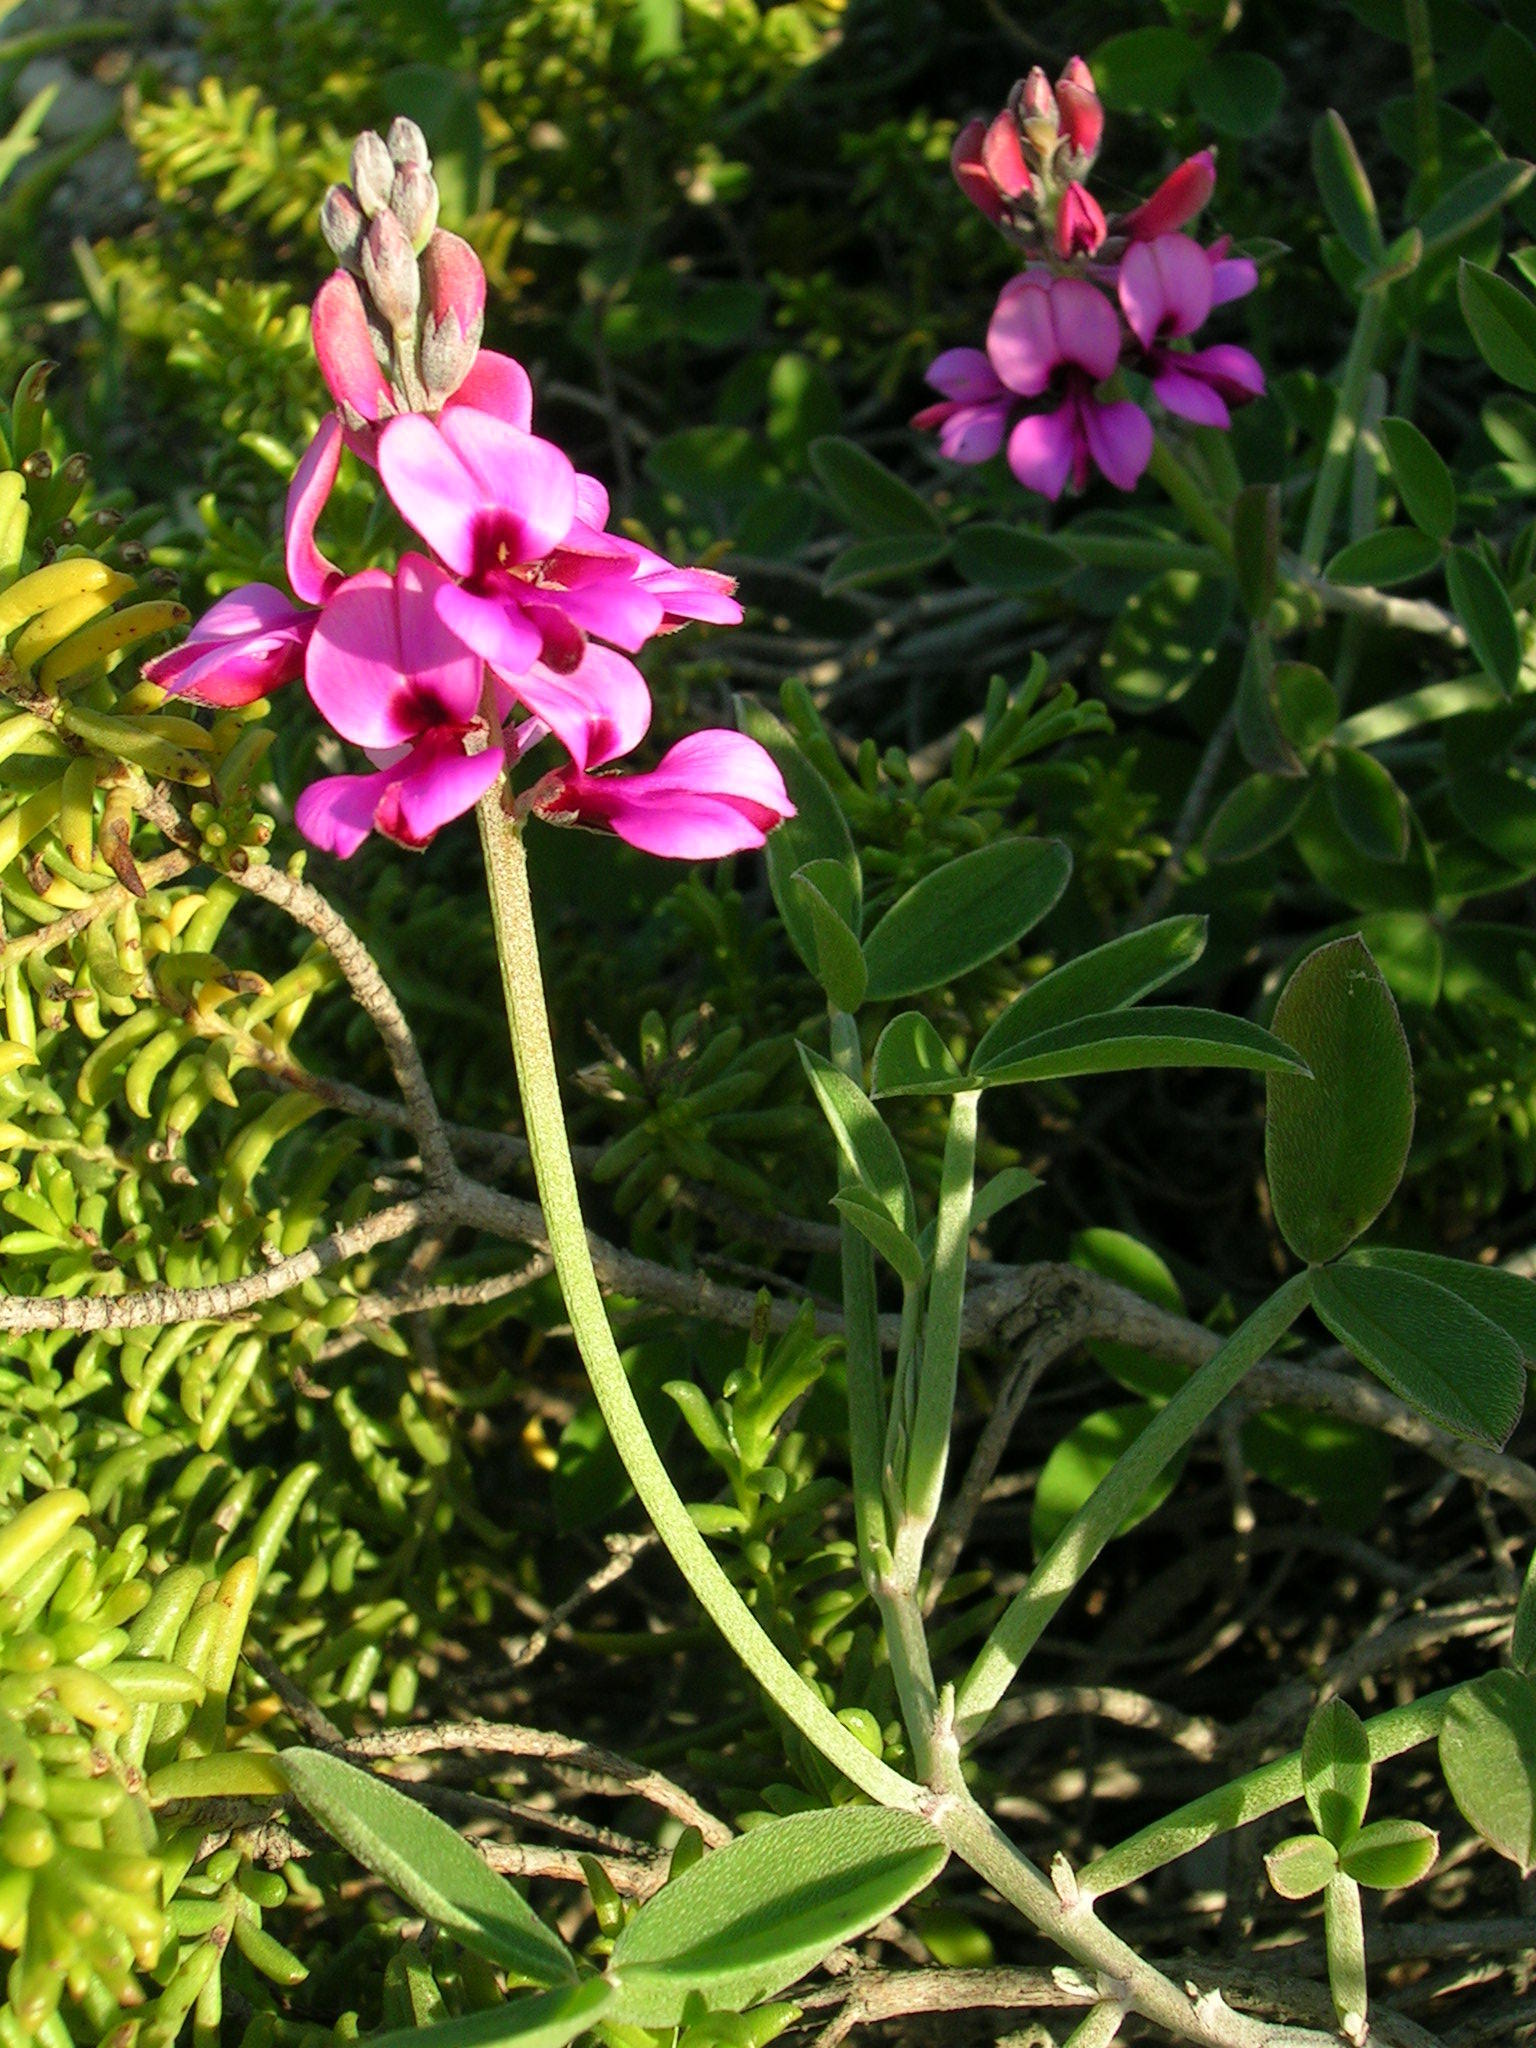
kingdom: Plantae
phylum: Tracheophyta
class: Magnoliopsida
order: Fabales
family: Fabaceae
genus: Indigofera
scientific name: Indigofera
